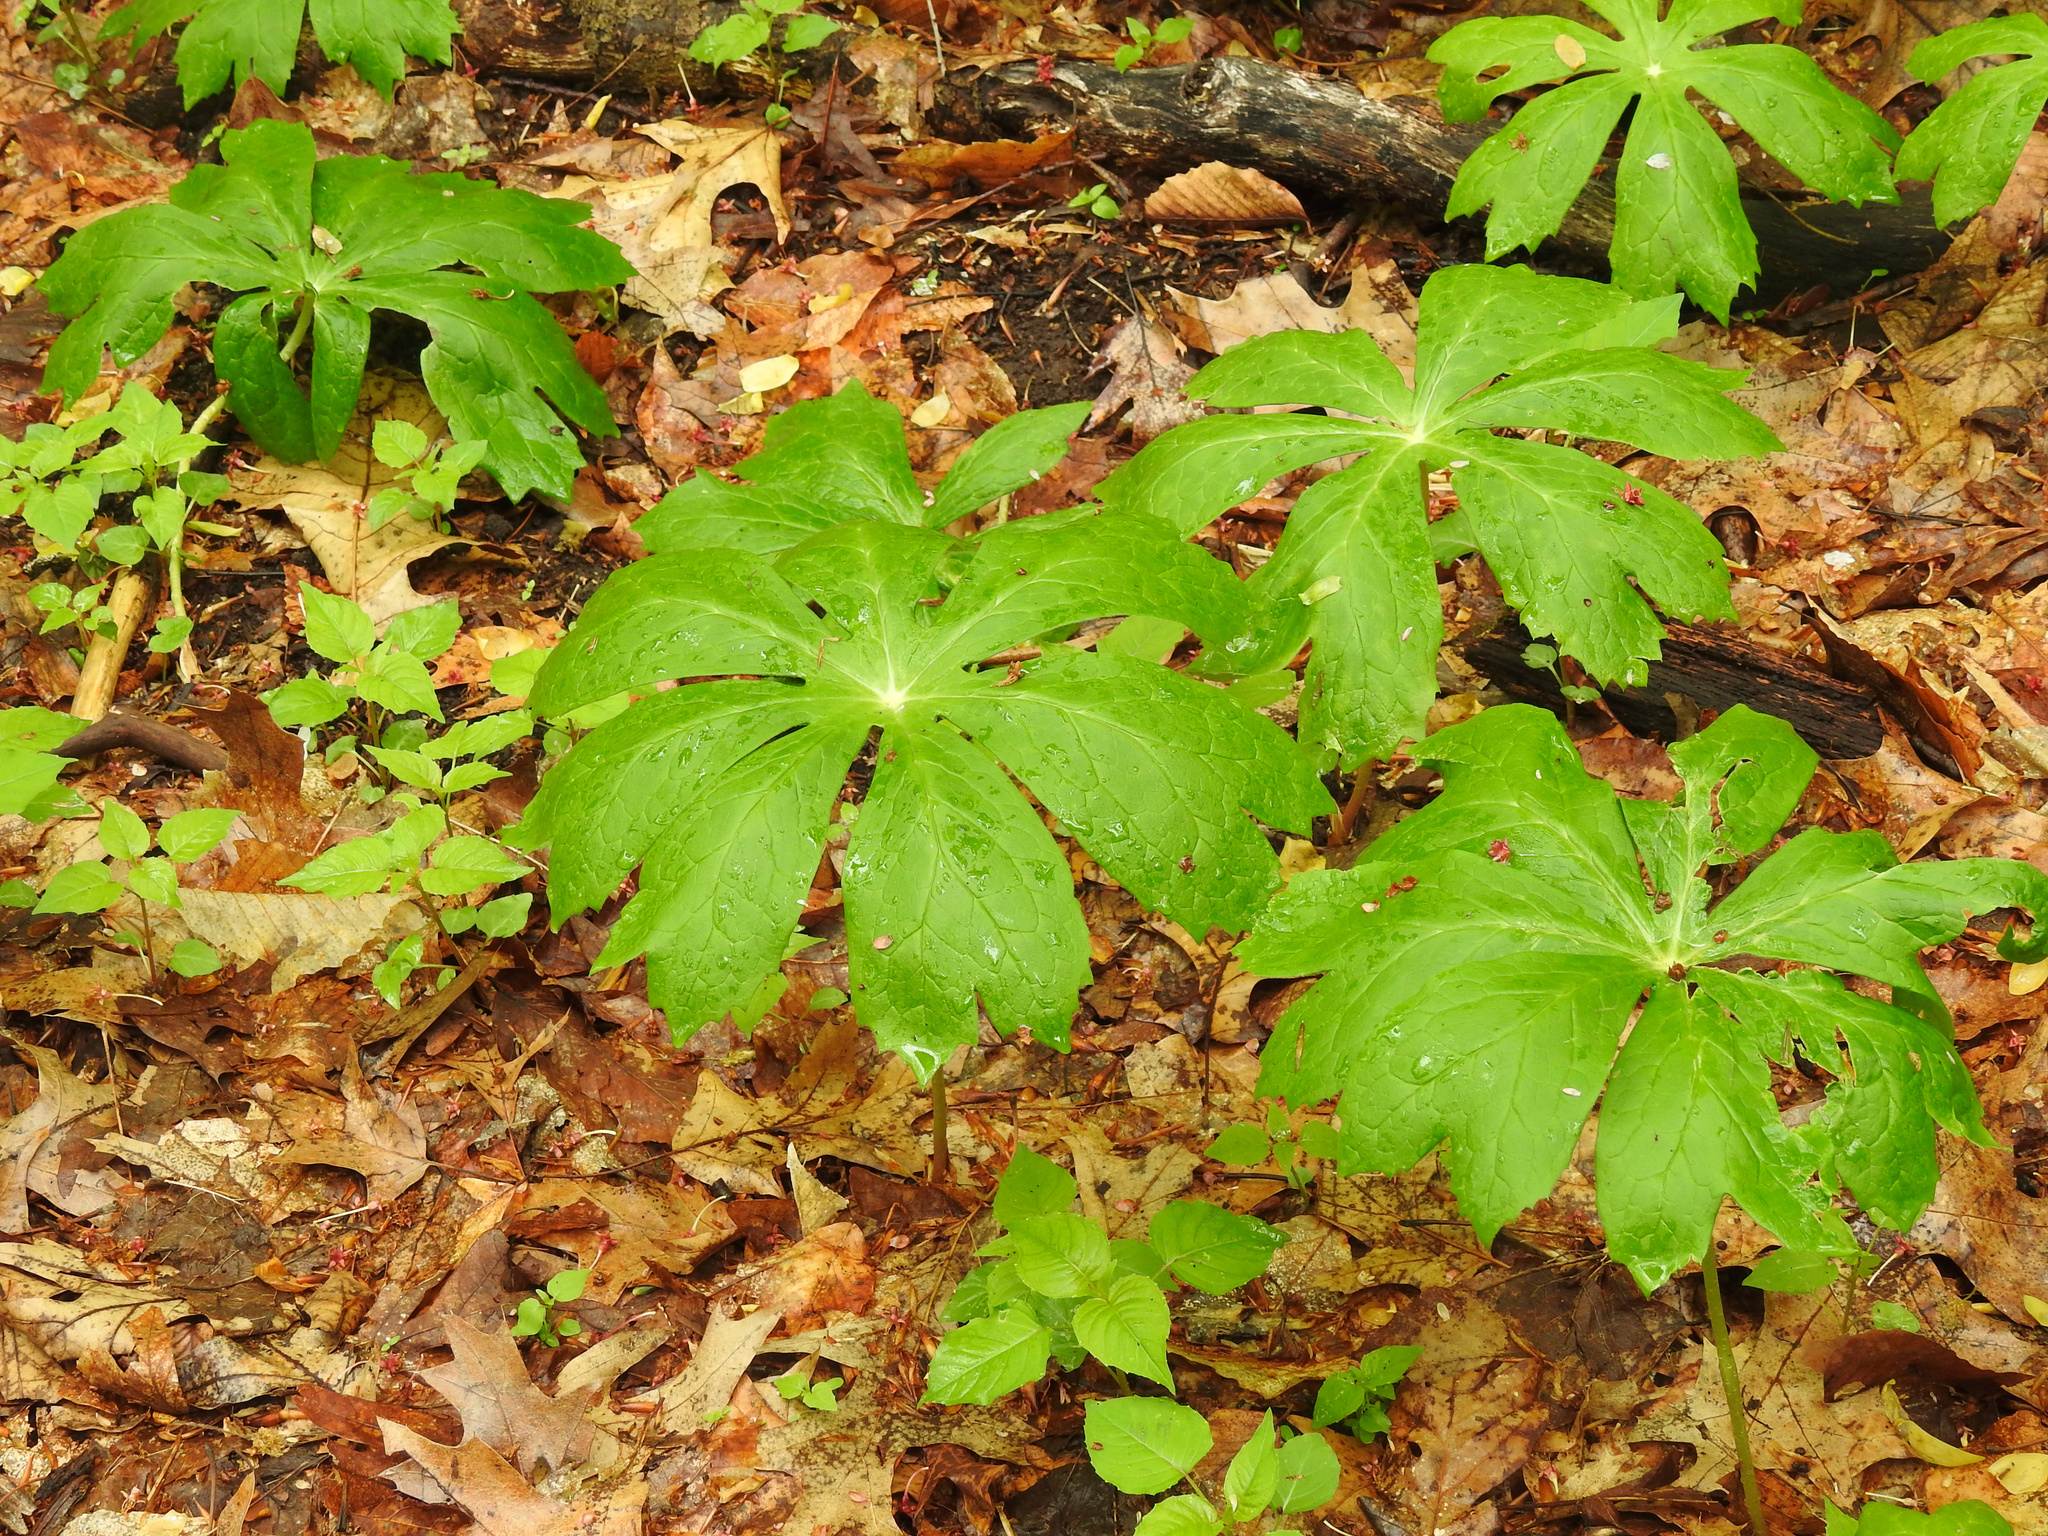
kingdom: Plantae
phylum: Tracheophyta
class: Magnoliopsida
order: Ranunculales
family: Berberidaceae
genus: Podophyllum
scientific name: Podophyllum peltatum
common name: Wild mandrake
